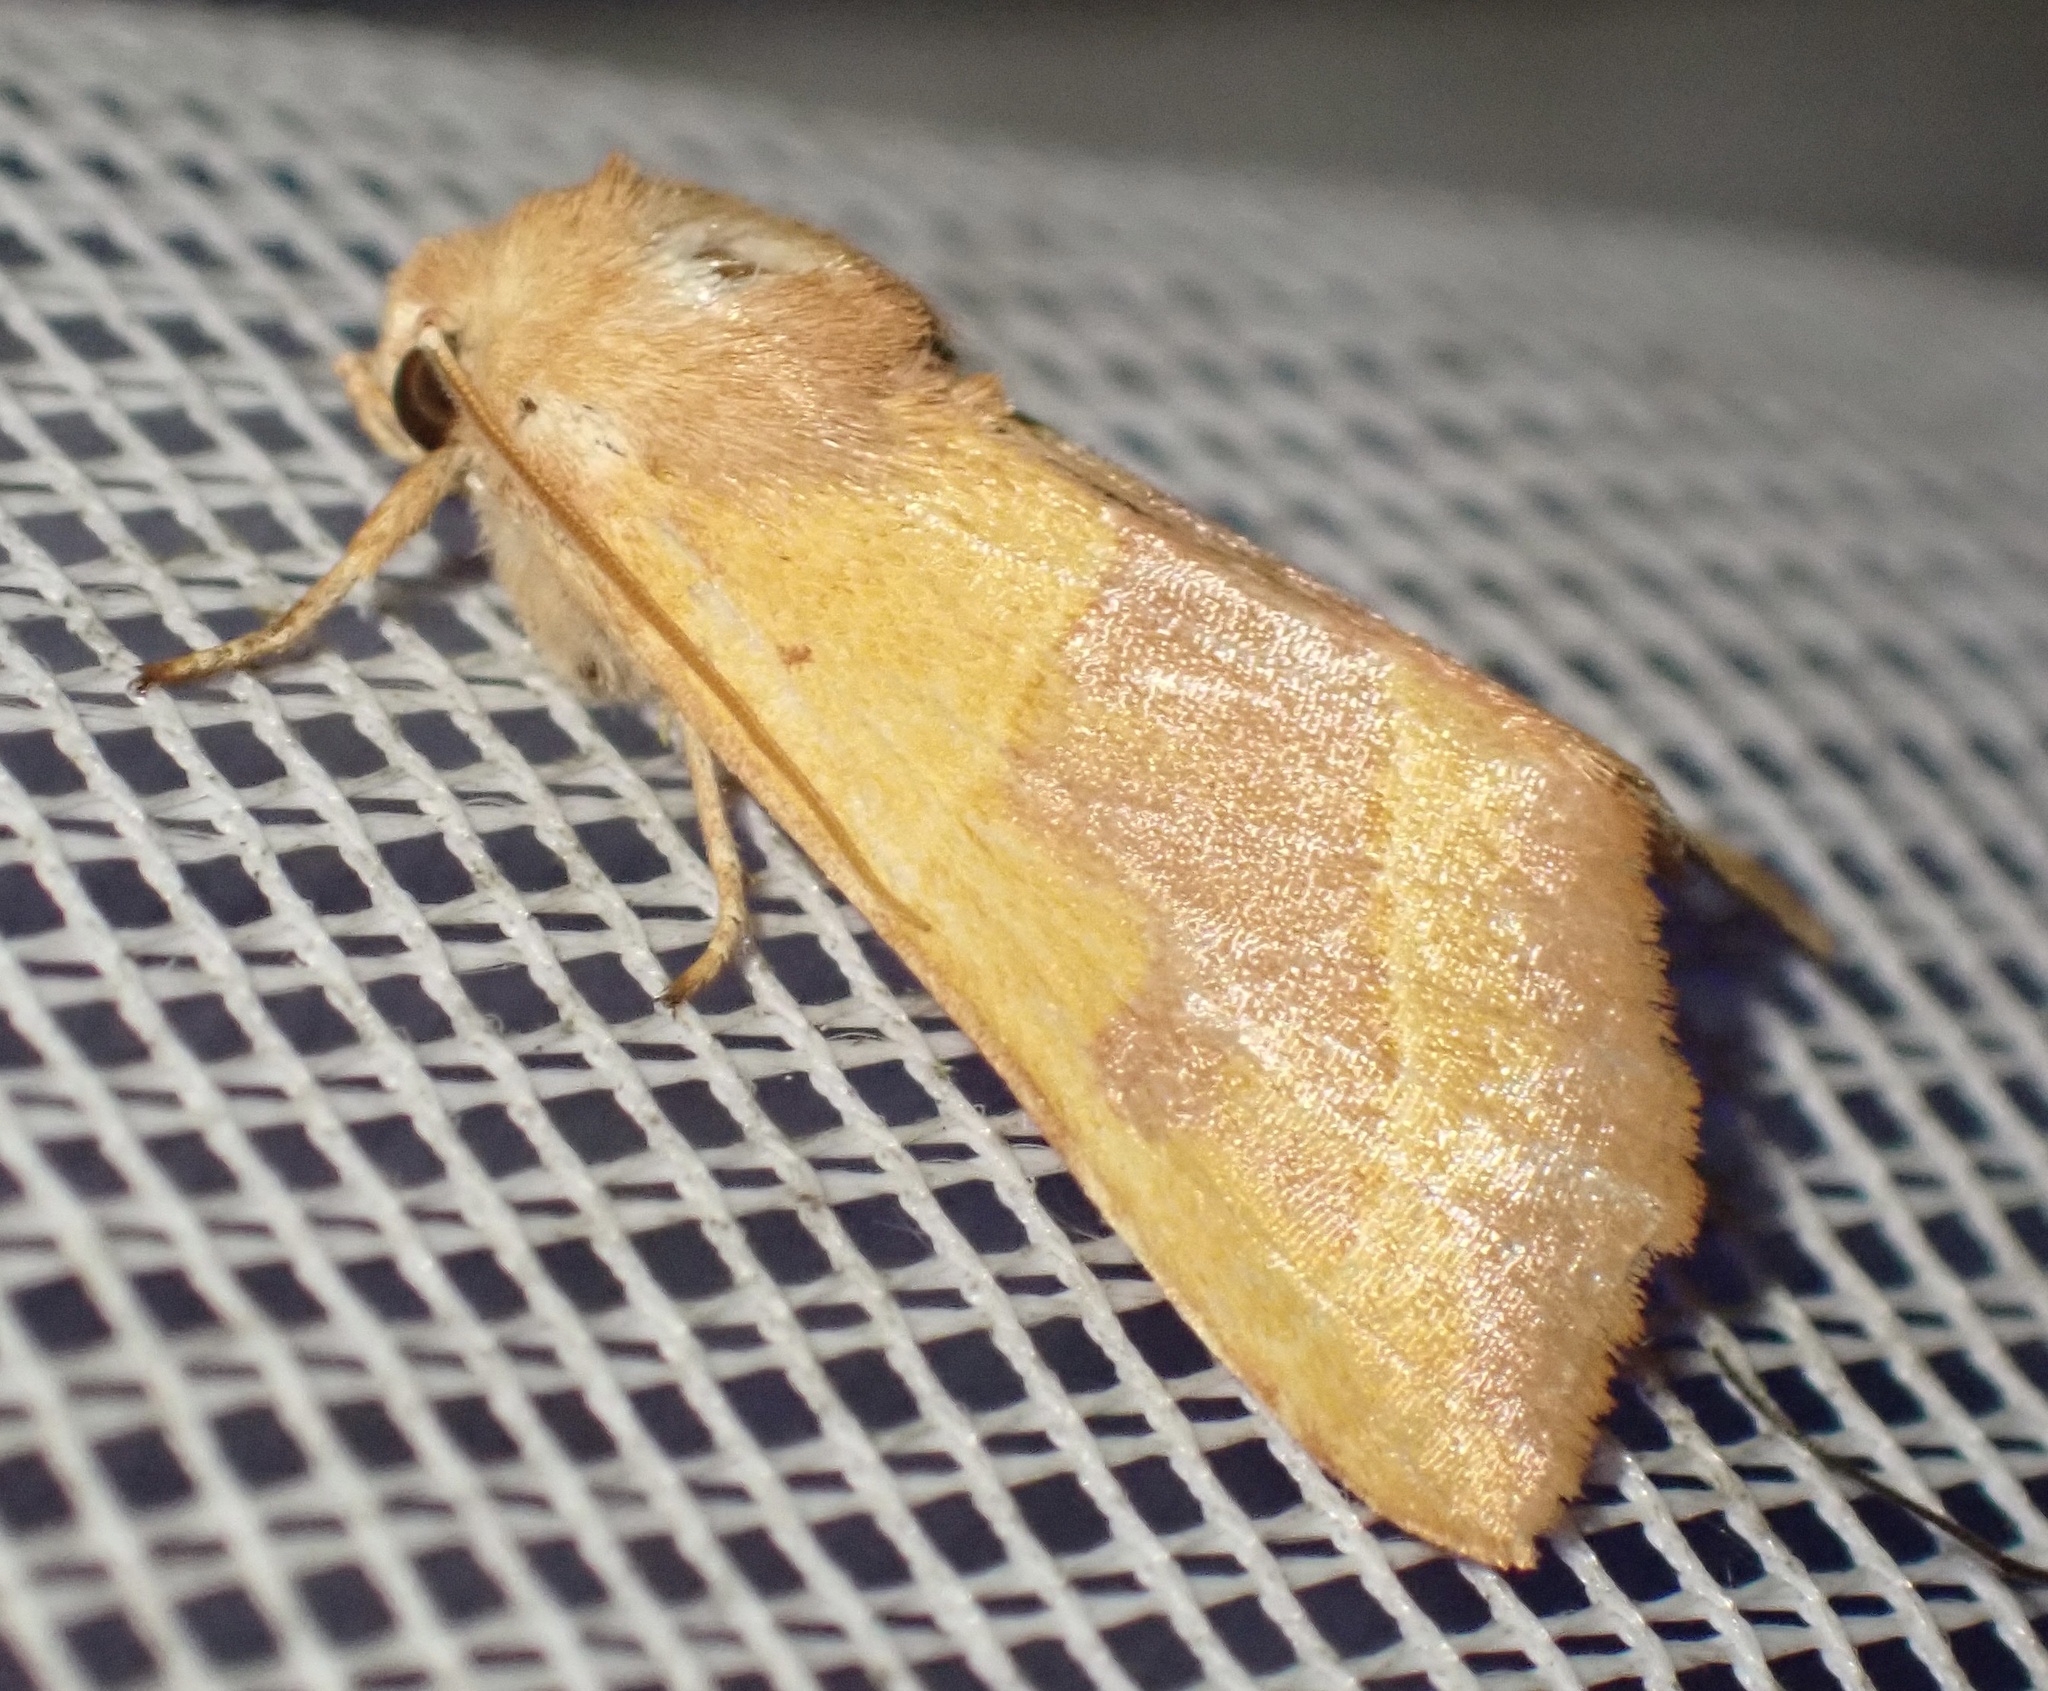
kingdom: Animalia
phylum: Arthropoda
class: Insecta
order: Lepidoptera
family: Noctuidae
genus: Atethmia
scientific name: Atethmia centrago
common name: Centre-barred sallow
